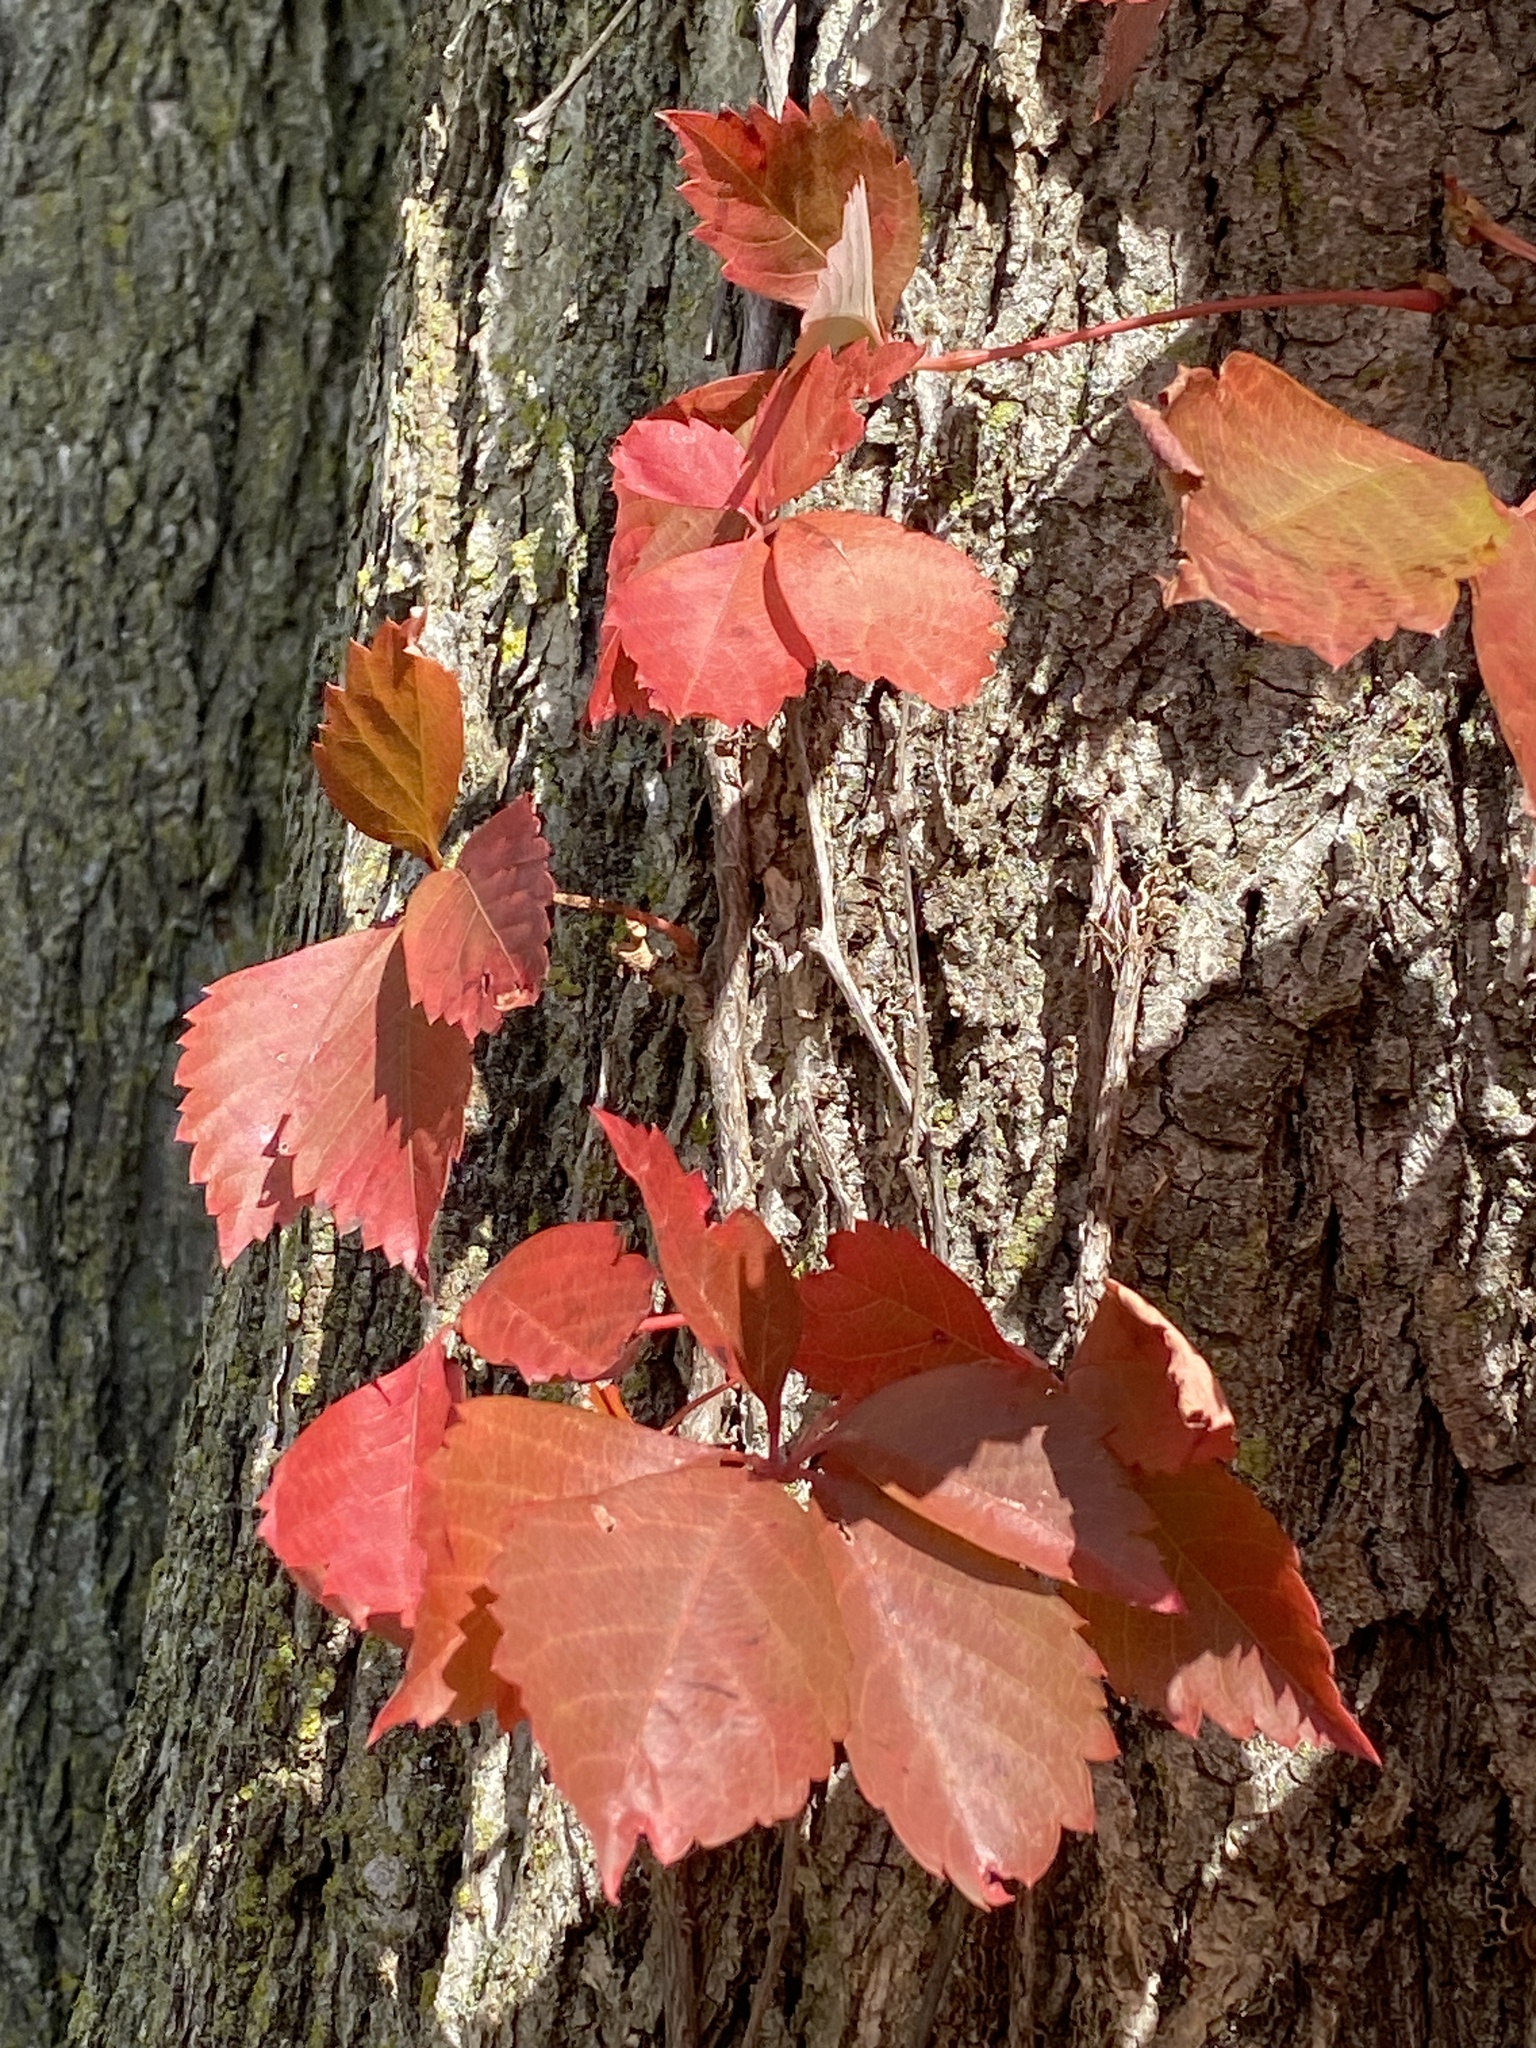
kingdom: Plantae
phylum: Tracheophyta
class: Magnoliopsida
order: Vitales
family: Vitaceae
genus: Parthenocissus
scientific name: Parthenocissus quinquefolia
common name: Virginia-creeper
